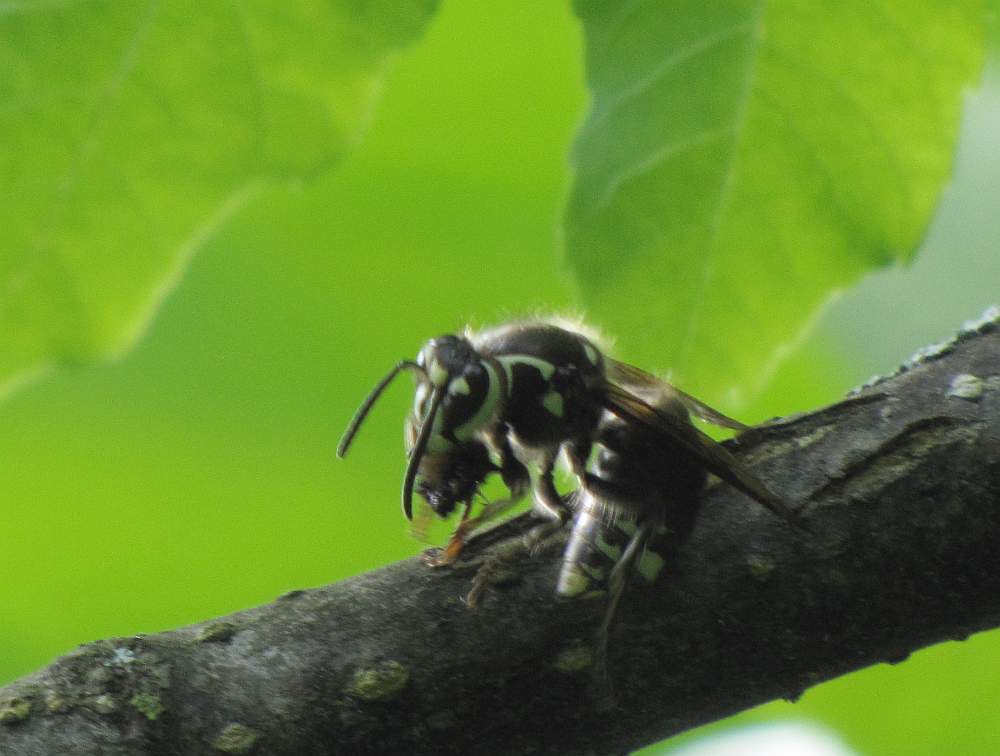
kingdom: Animalia
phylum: Arthropoda
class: Insecta
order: Hymenoptera
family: Vespidae
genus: Dolichovespula
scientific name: Dolichovespula maculata
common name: Bald-faced hornet
